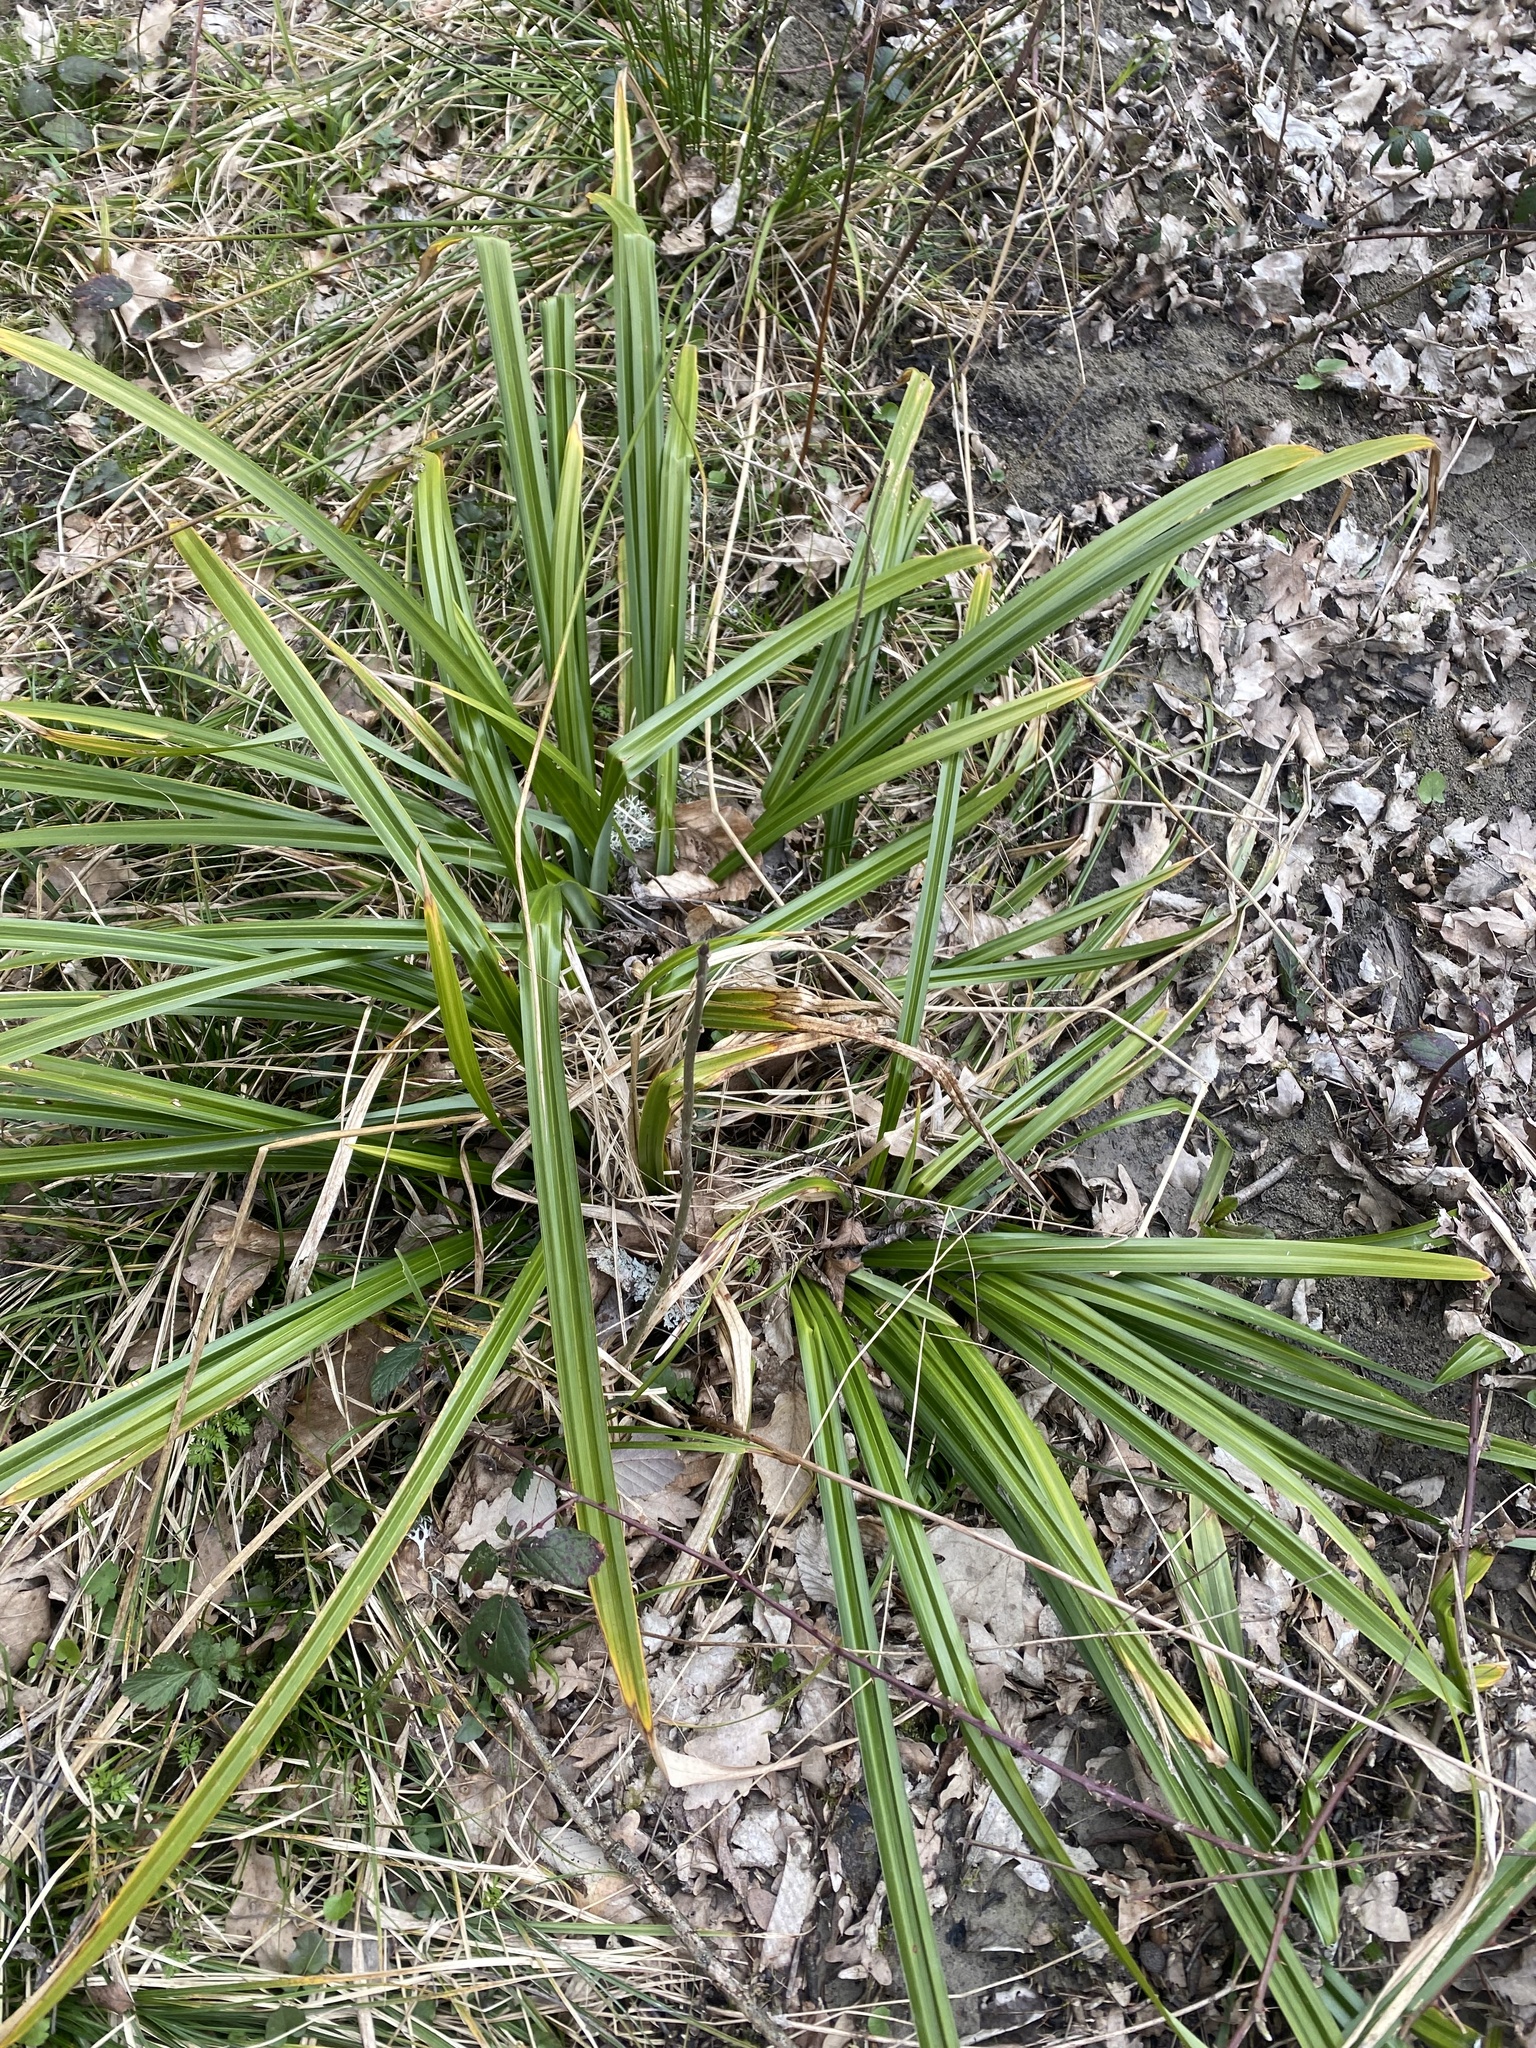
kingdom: Plantae
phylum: Tracheophyta
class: Liliopsida
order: Poales
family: Cyperaceae
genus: Carex
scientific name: Carex pendula
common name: Pendulous sedge
